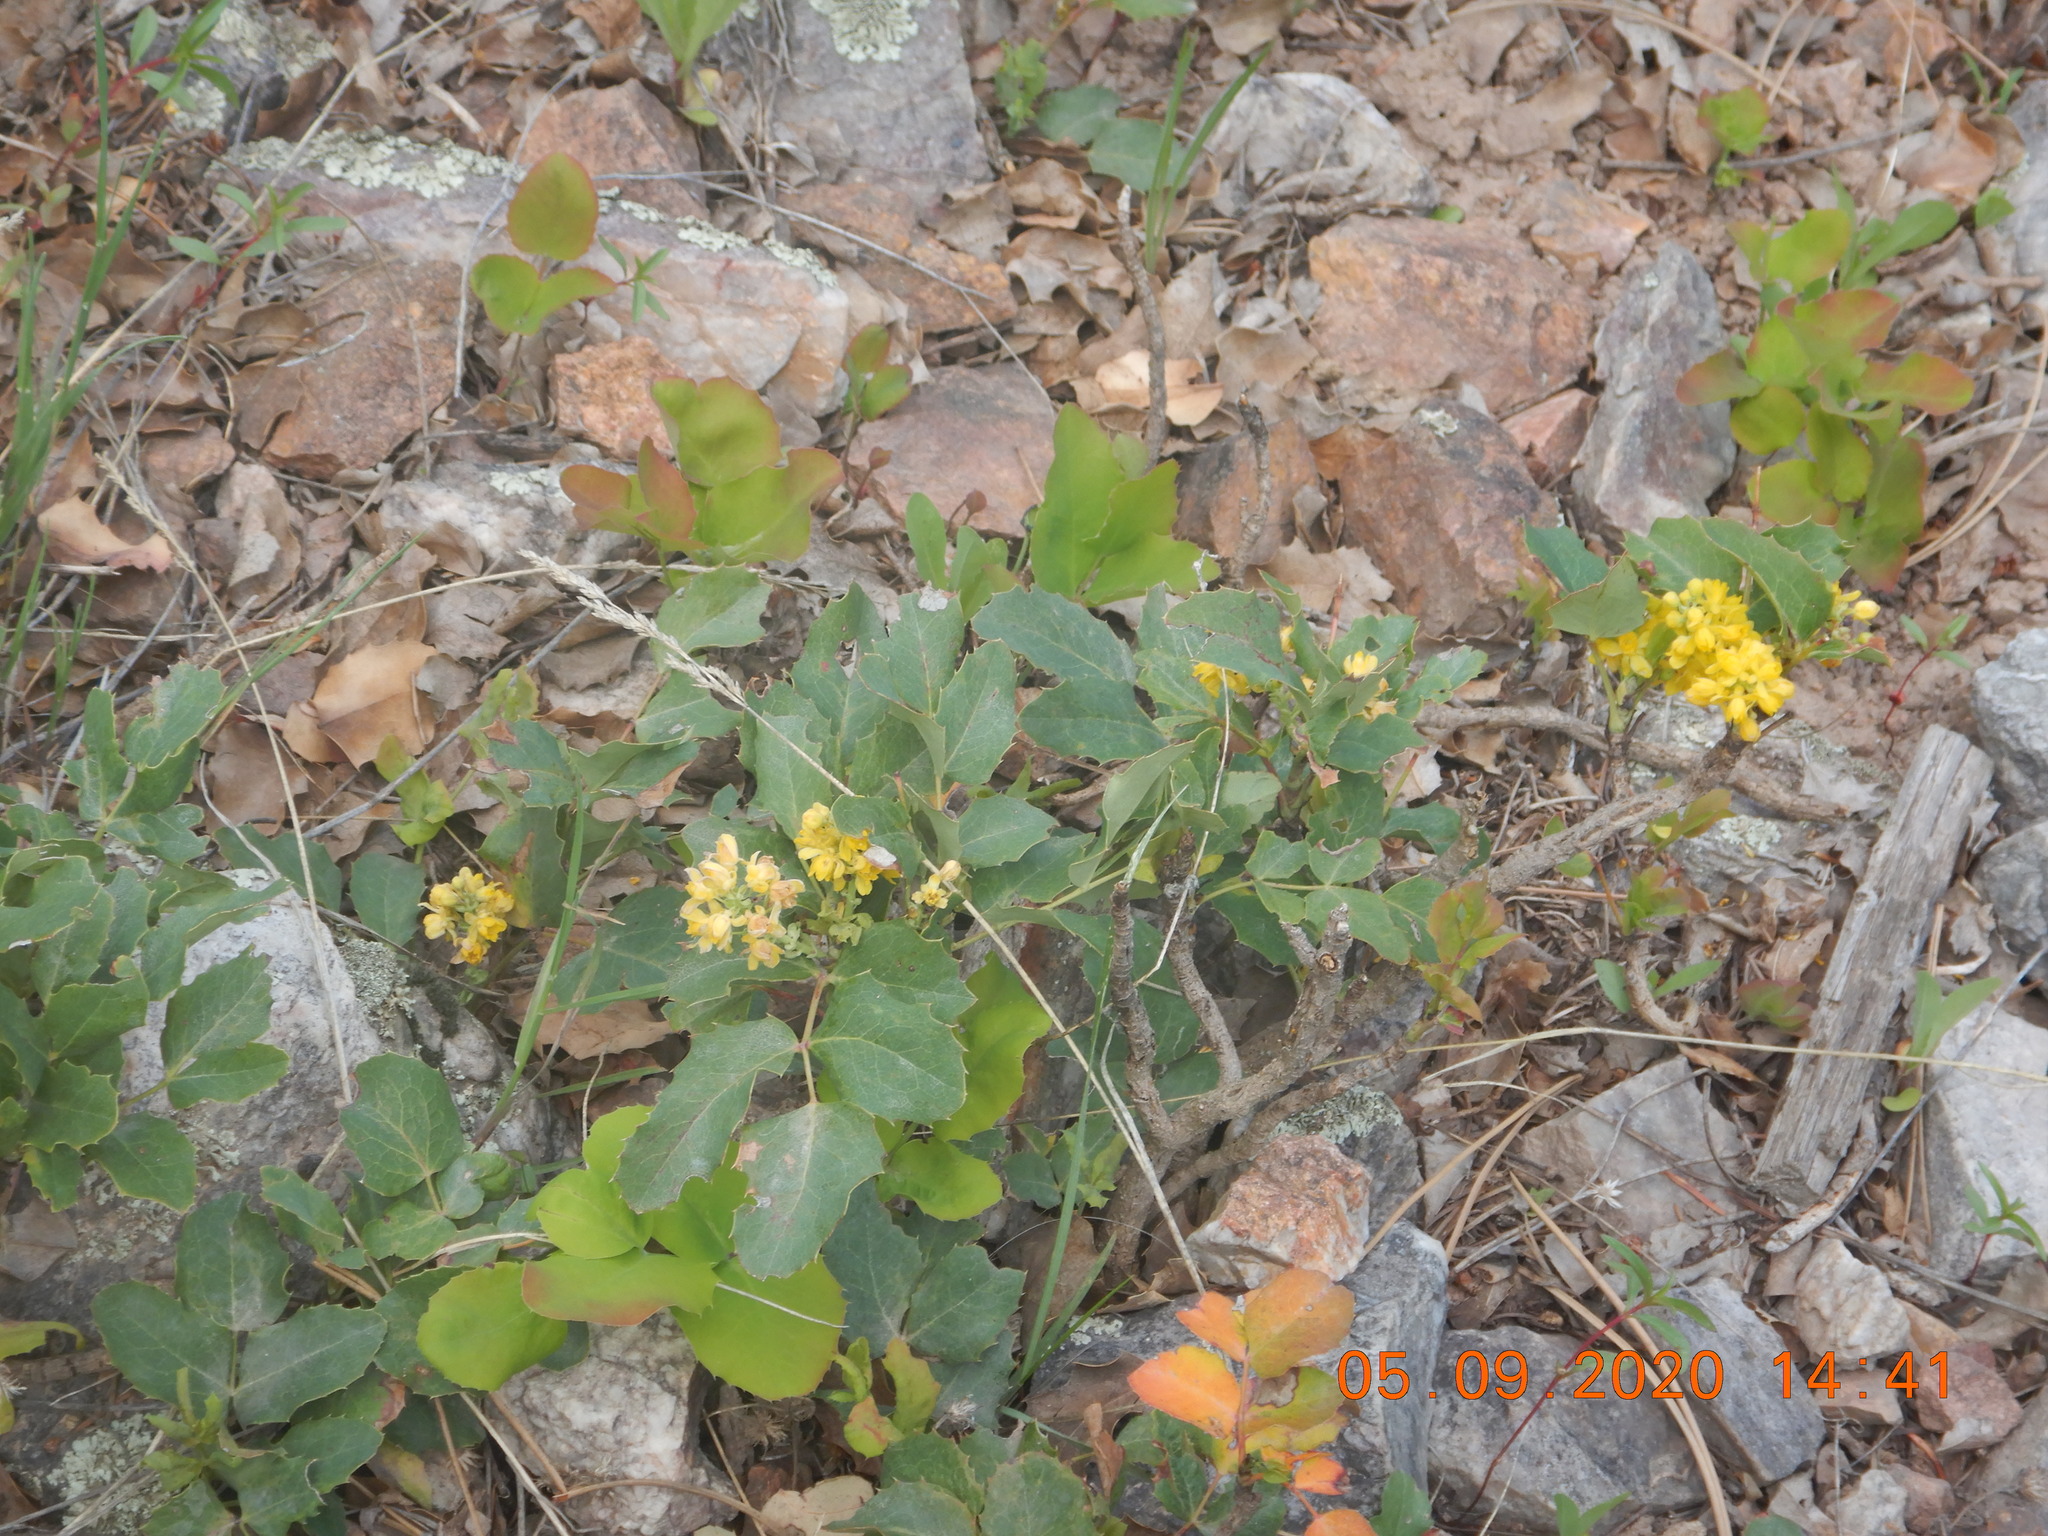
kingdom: Plantae
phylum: Tracheophyta
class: Magnoliopsida
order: Ranunculales
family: Berberidaceae
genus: Mahonia
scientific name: Mahonia repens
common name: Creeping oregon-grape
